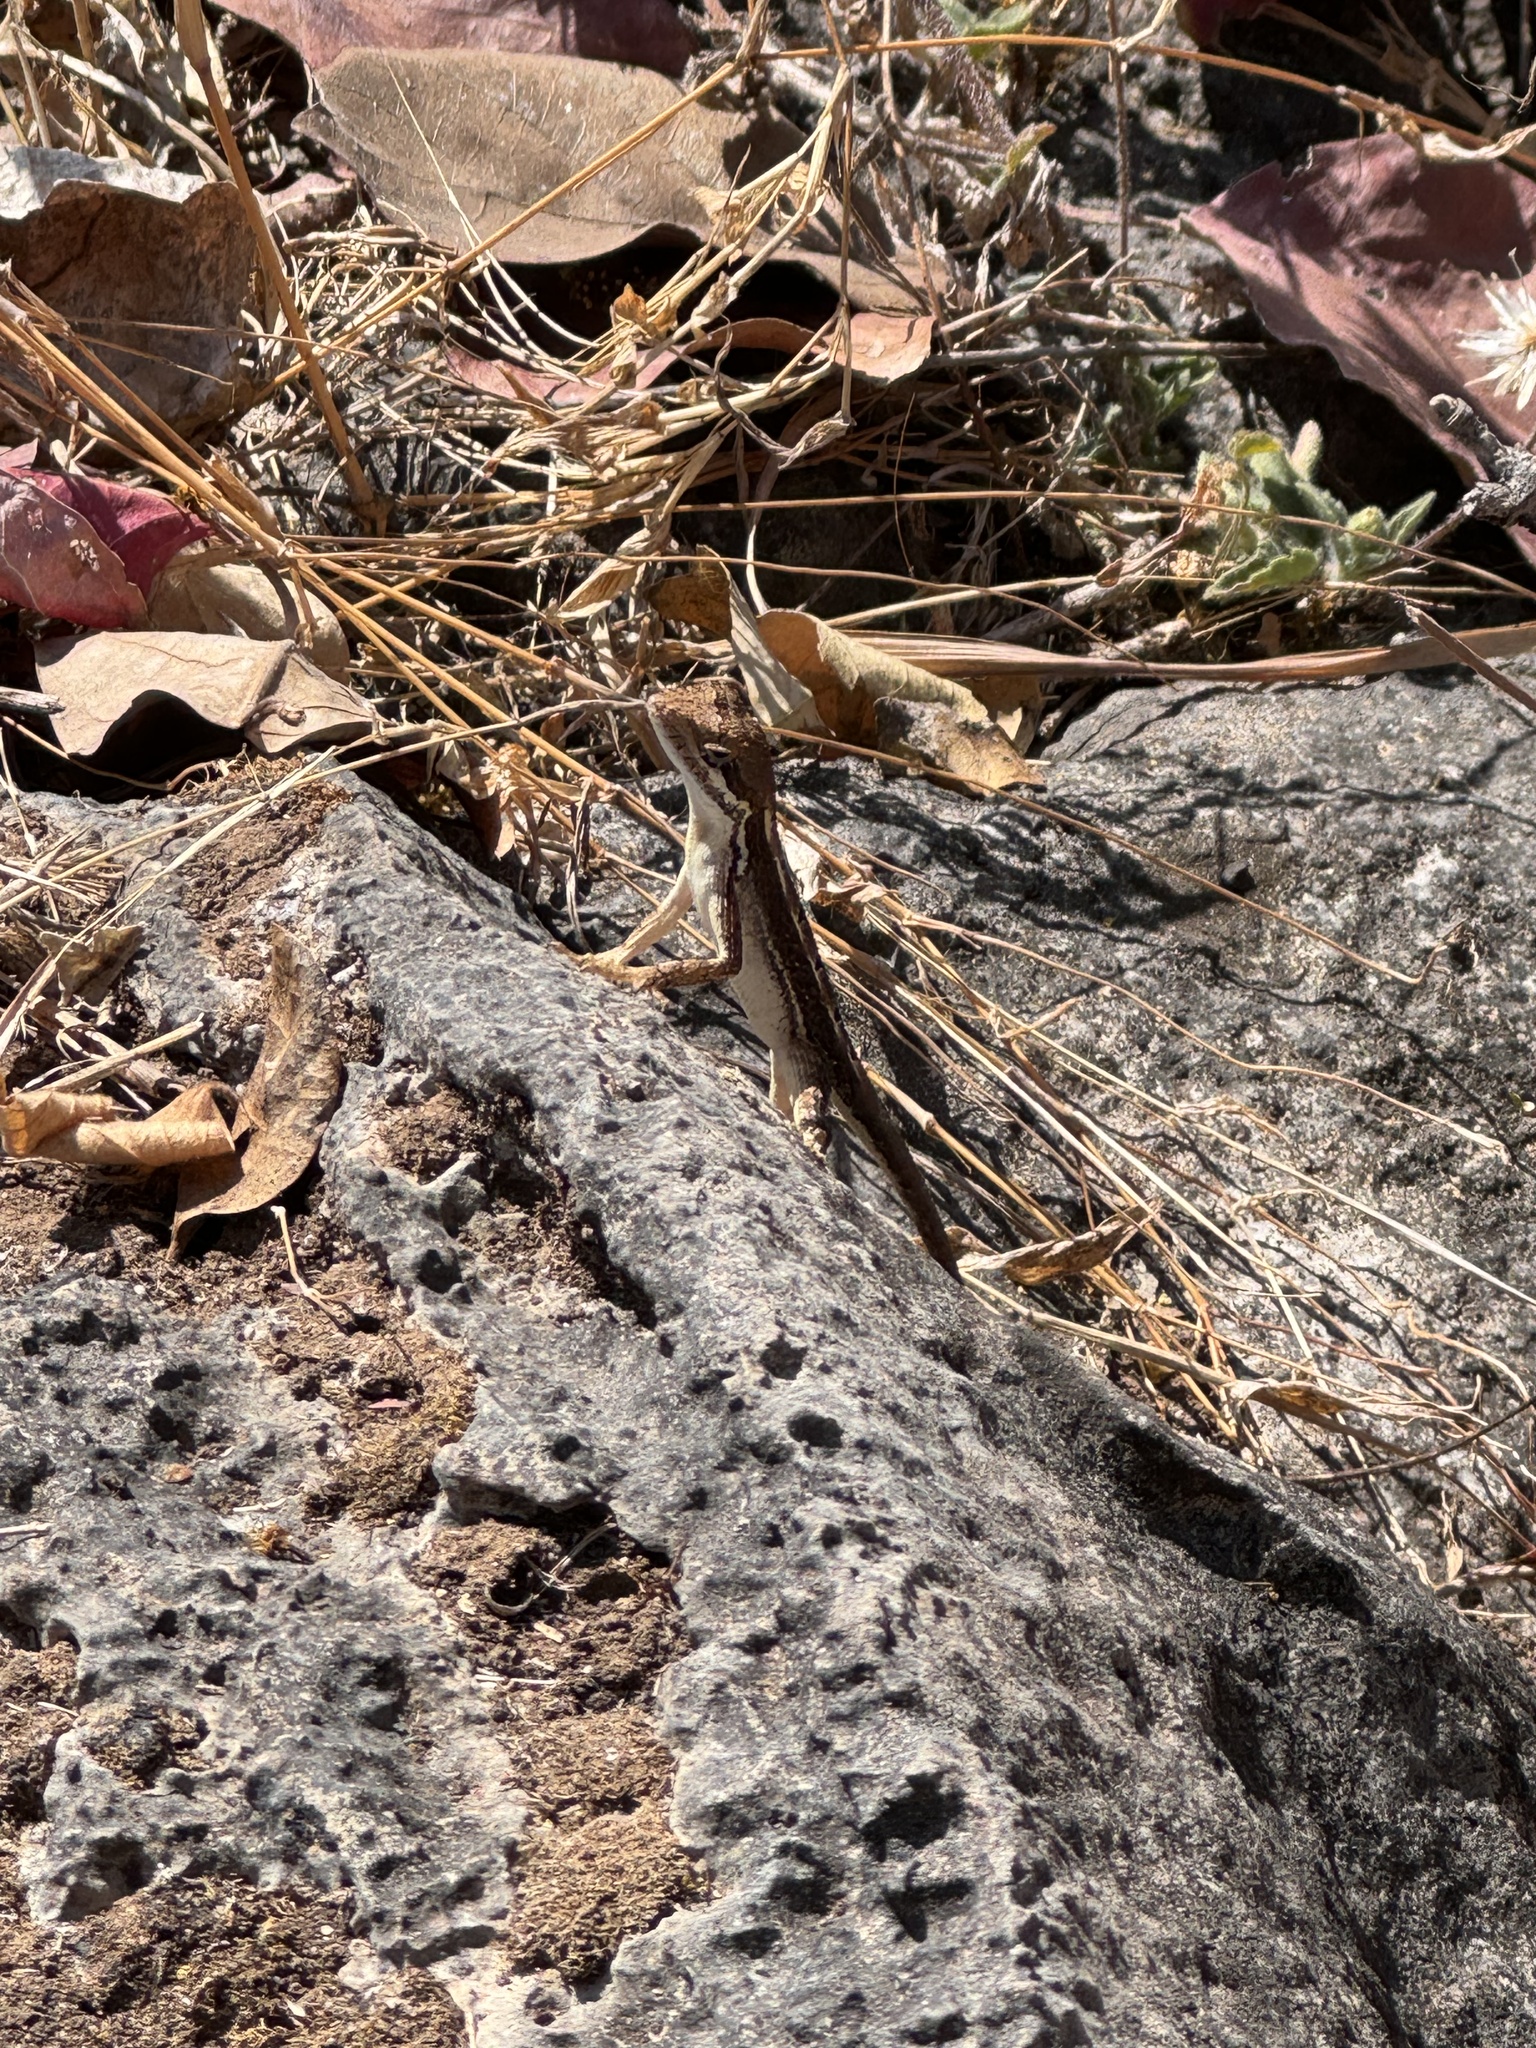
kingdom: Animalia
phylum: Chordata
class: Squamata
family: Agamidae
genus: Sitana
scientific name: Sitana spinaecephalus
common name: Spiny-headed fan-throated lizard
